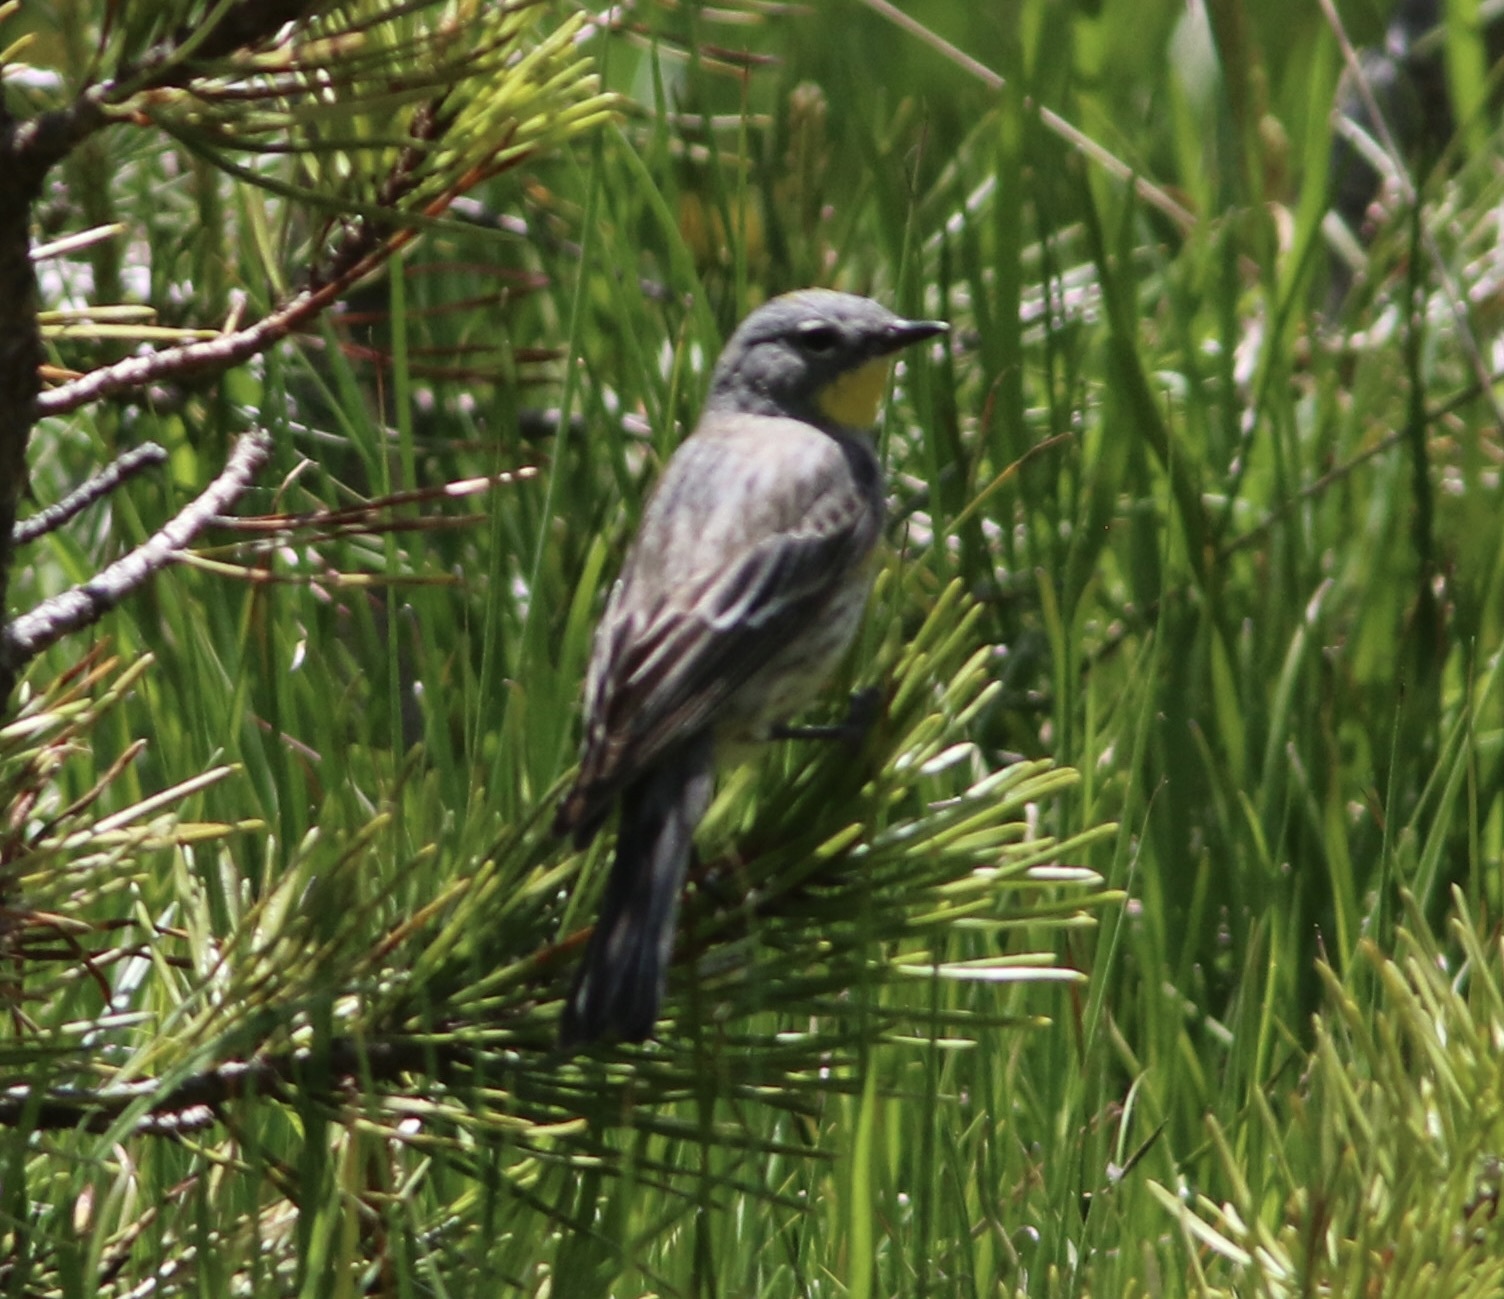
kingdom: Animalia
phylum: Chordata
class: Aves
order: Passeriformes
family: Parulidae
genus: Setophaga
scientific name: Setophaga coronata
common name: Myrtle warbler
